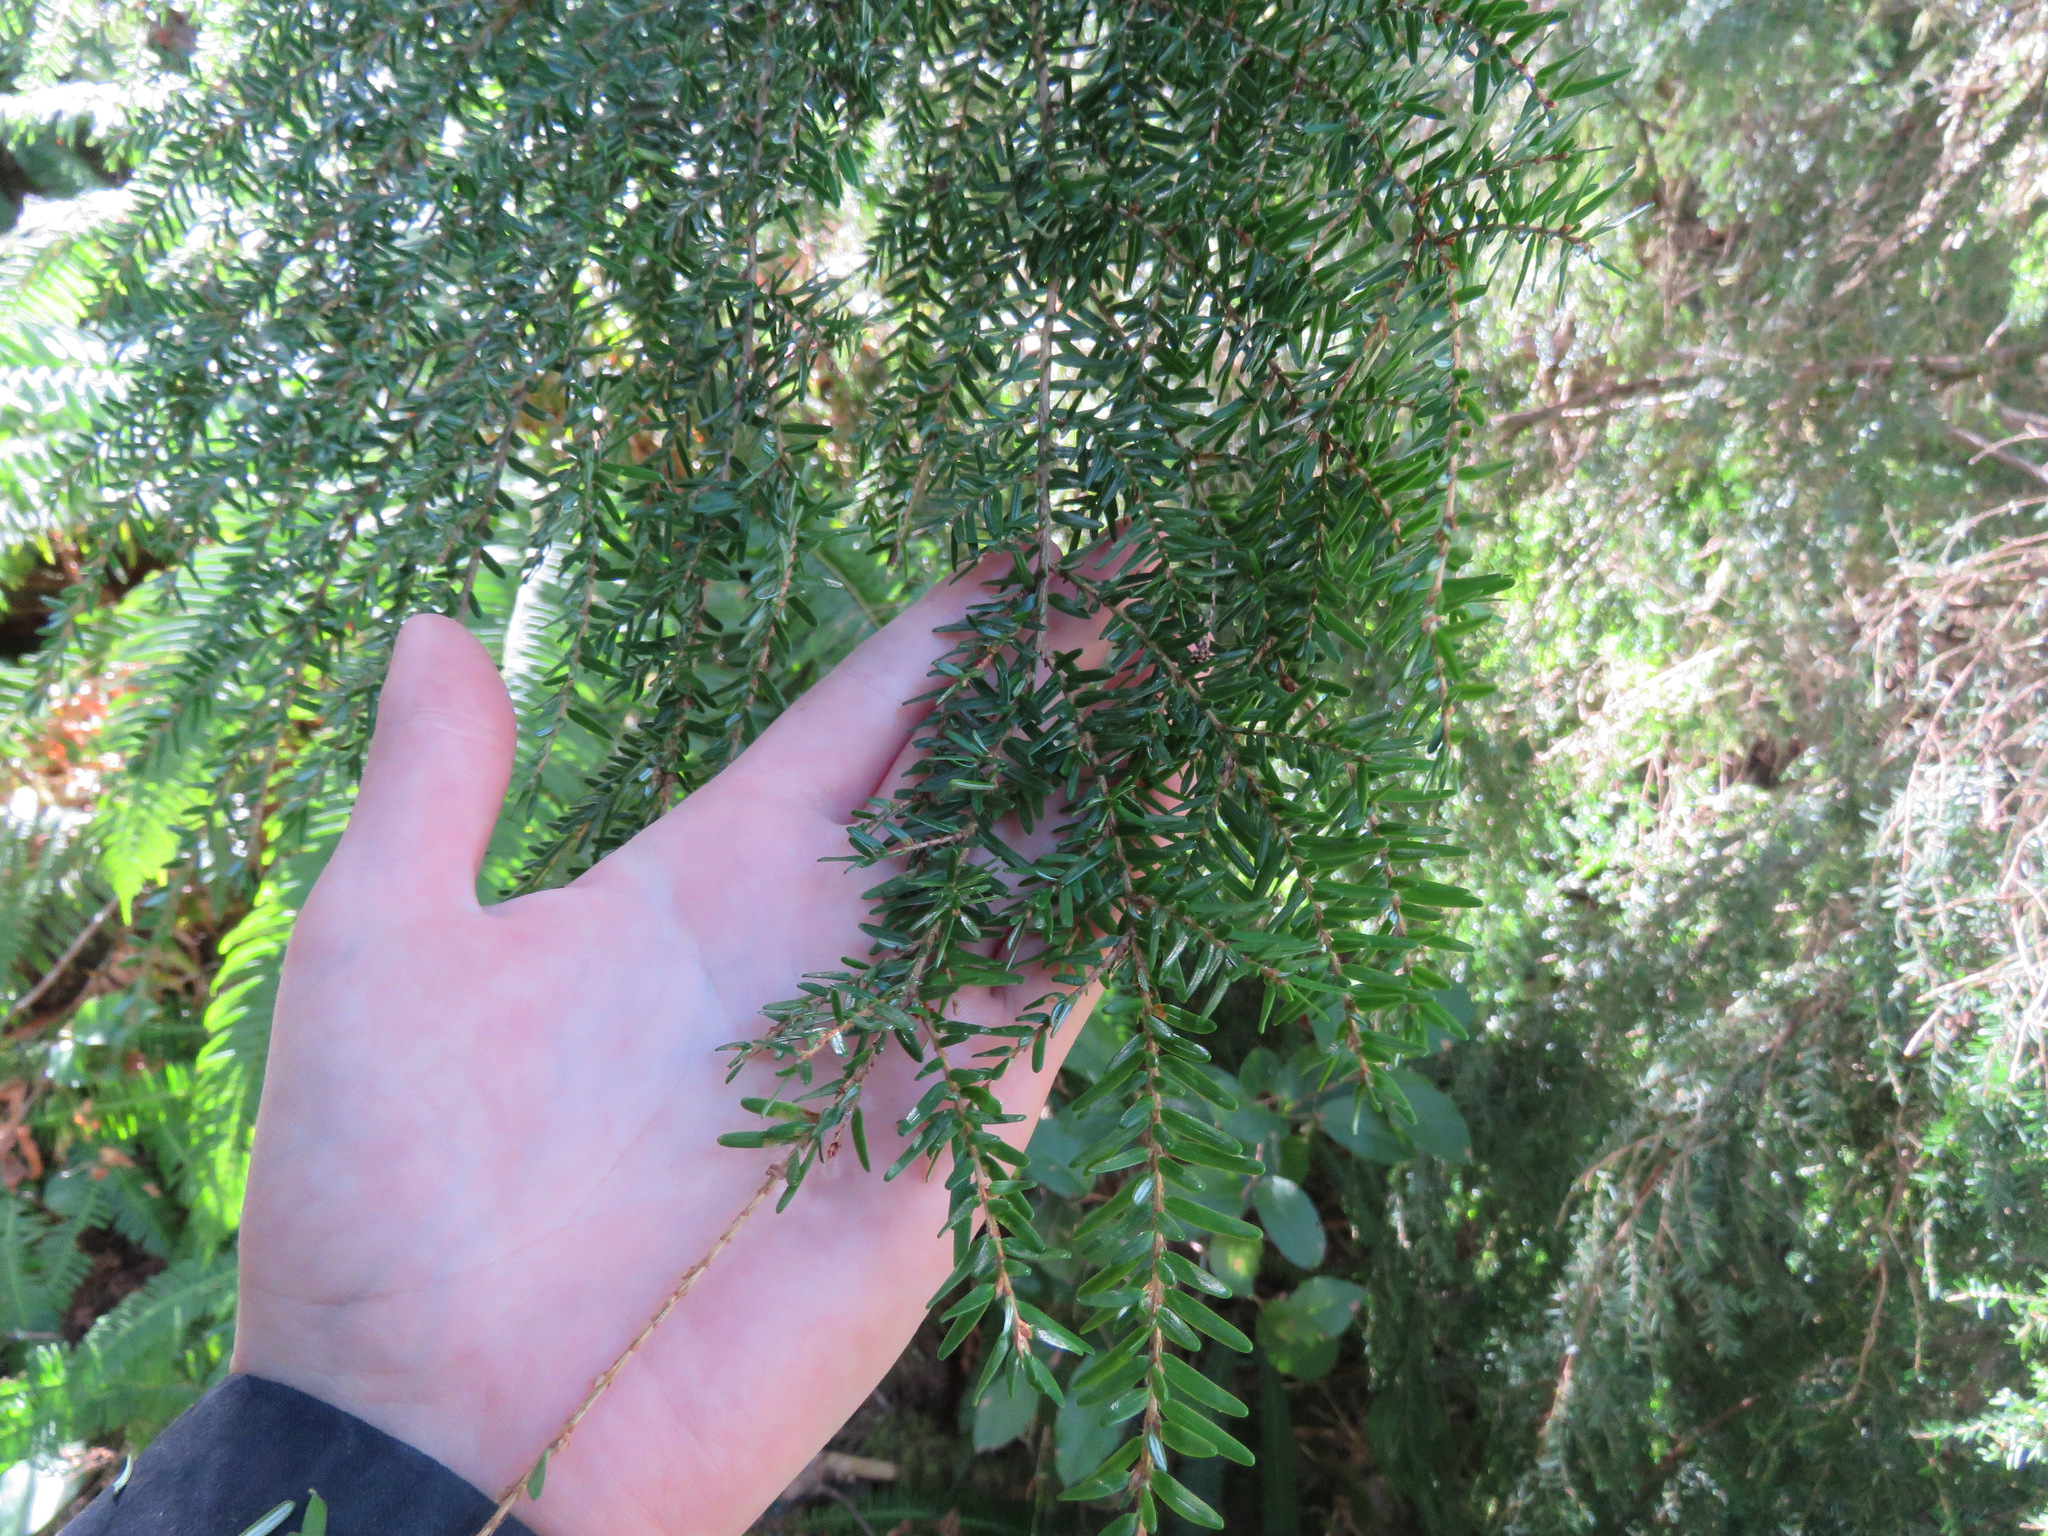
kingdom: Plantae
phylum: Tracheophyta
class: Pinopsida
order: Pinales
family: Pinaceae
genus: Tsuga
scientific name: Tsuga heterophylla
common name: Western hemlock
